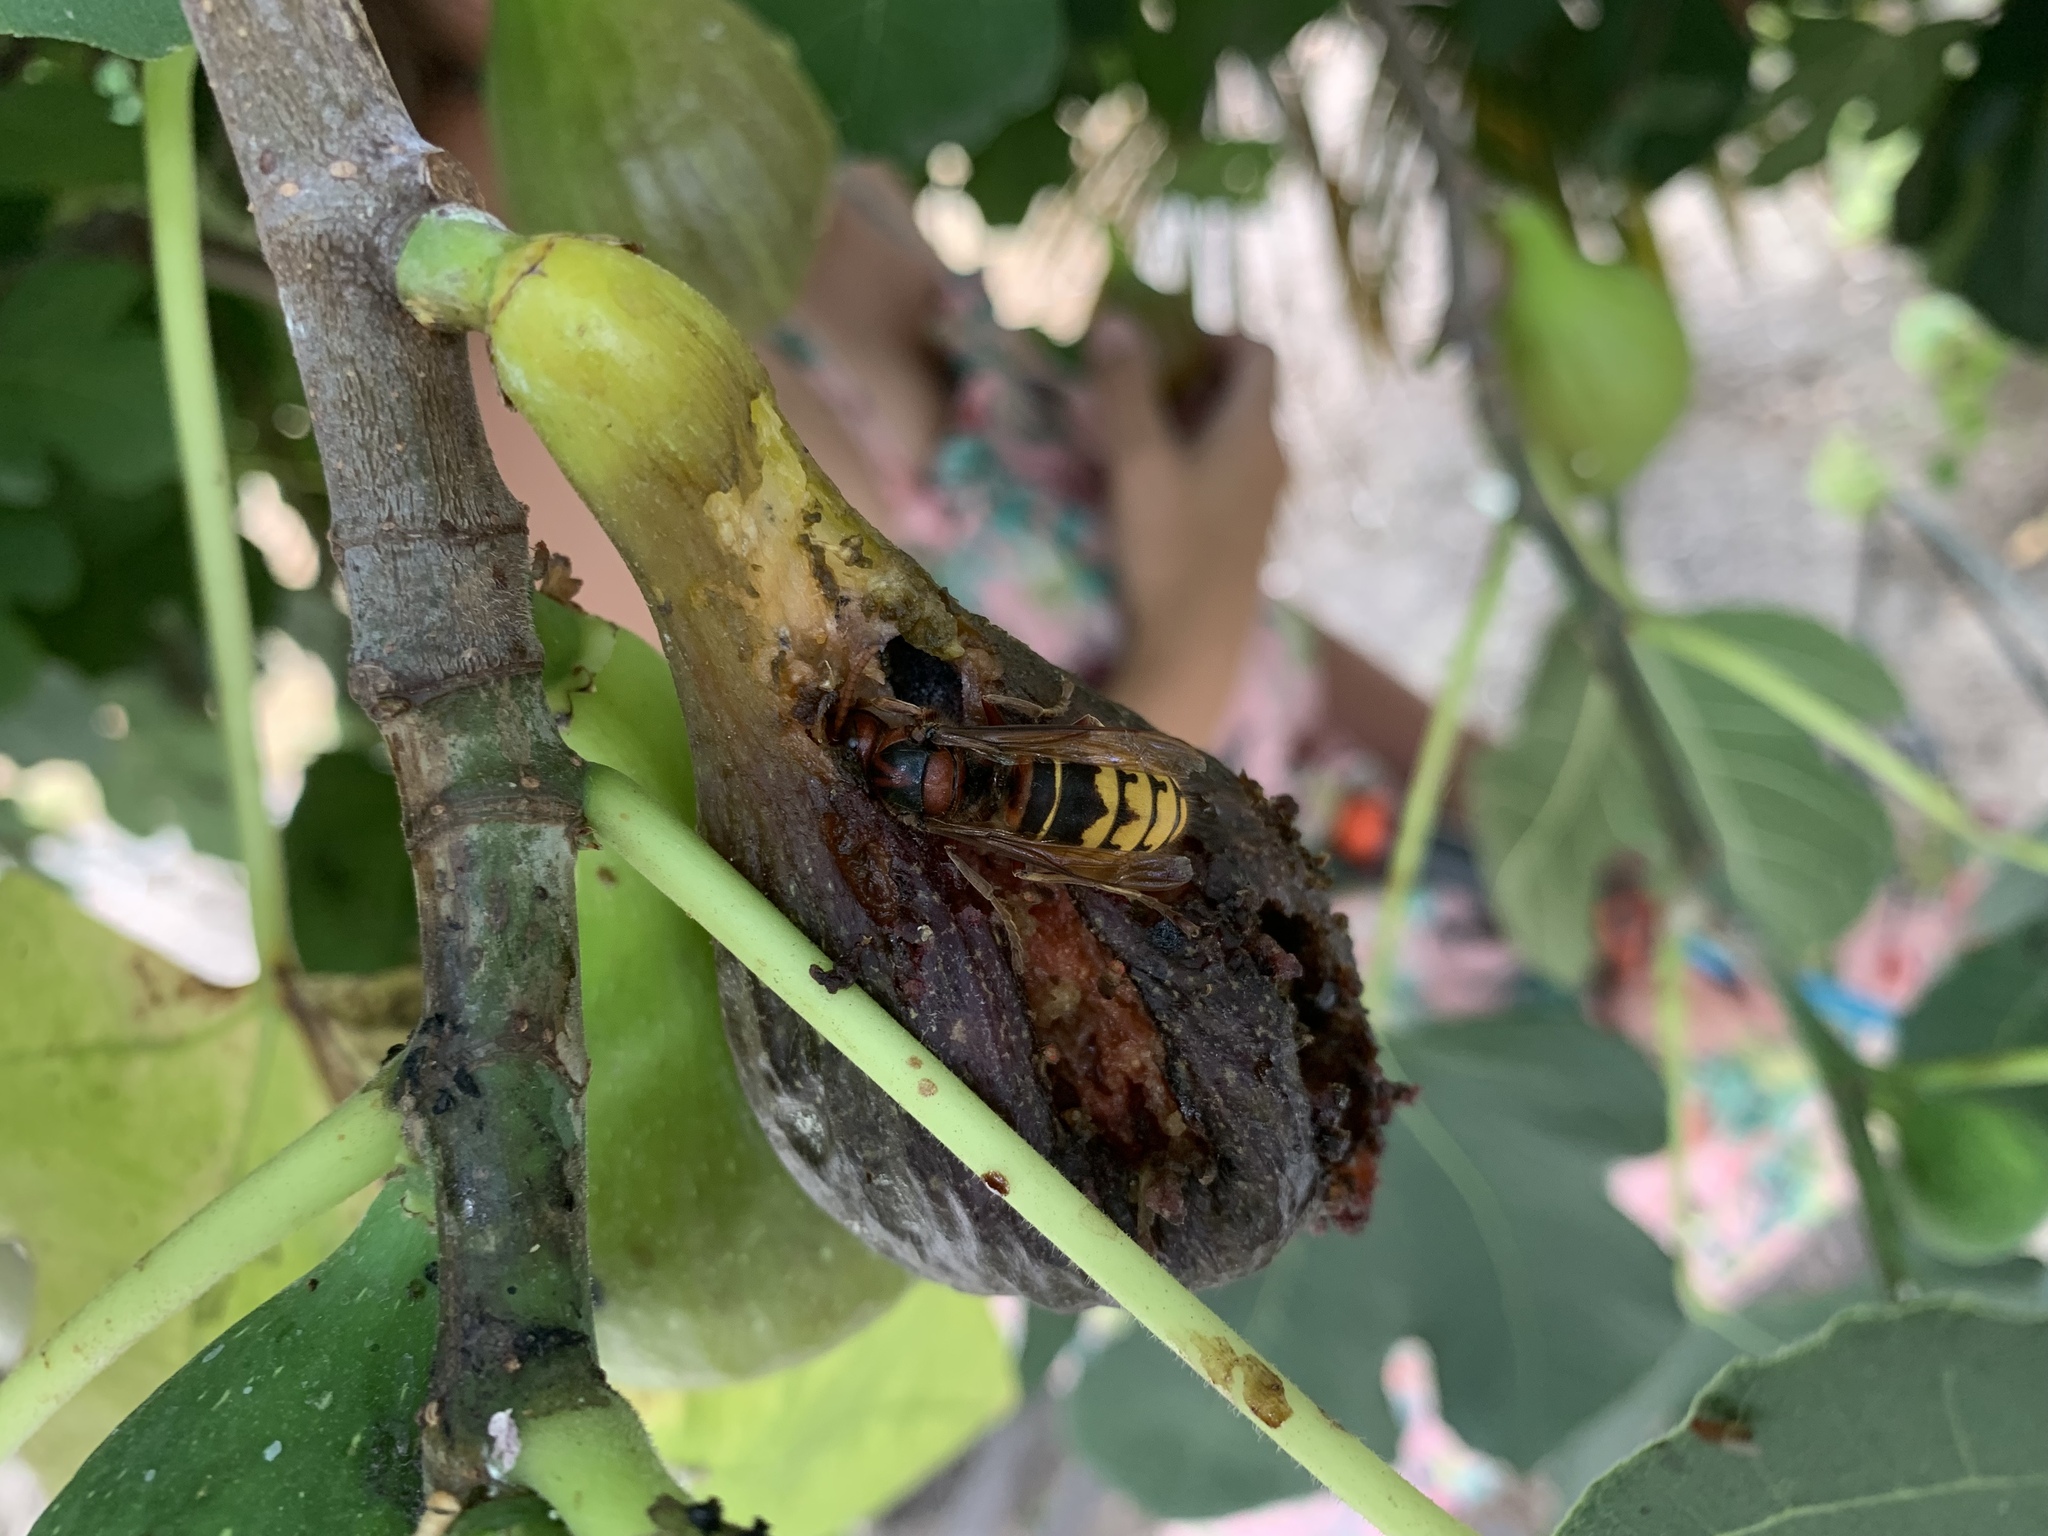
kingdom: Animalia
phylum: Arthropoda
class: Insecta
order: Hymenoptera
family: Vespidae
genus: Vespa
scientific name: Vespa crabro
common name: Hornet
